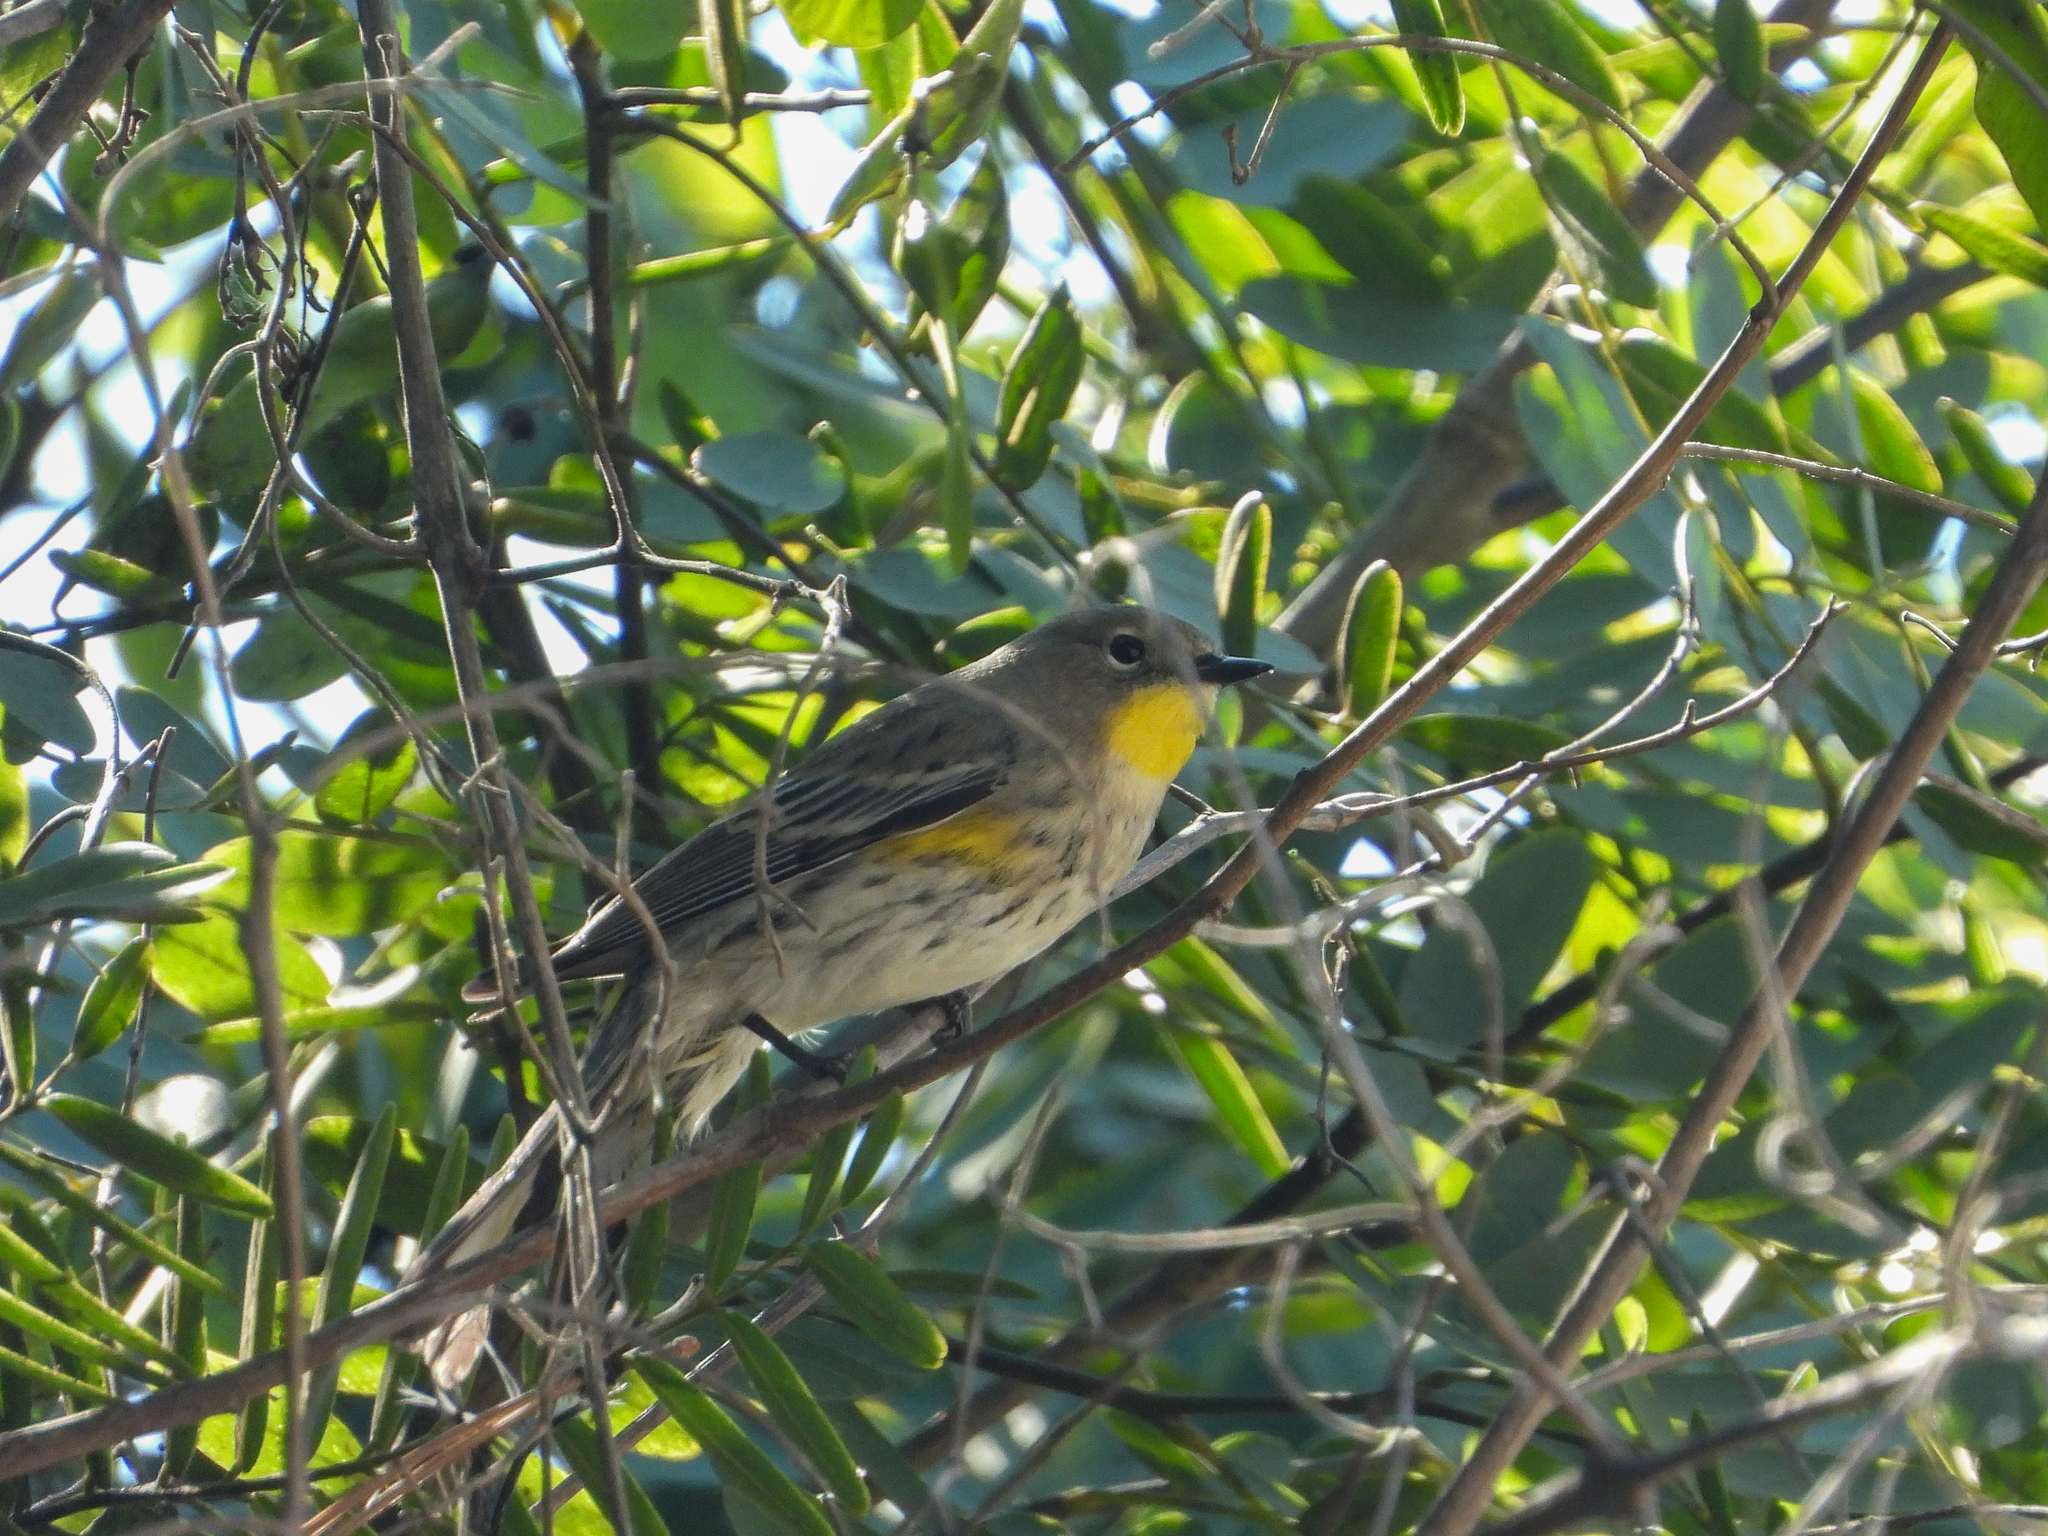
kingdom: Animalia
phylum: Chordata
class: Aves
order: Passeriformes
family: Parulidae
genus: Setophaga
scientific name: Setophaga coronata
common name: Myrtle warbler
